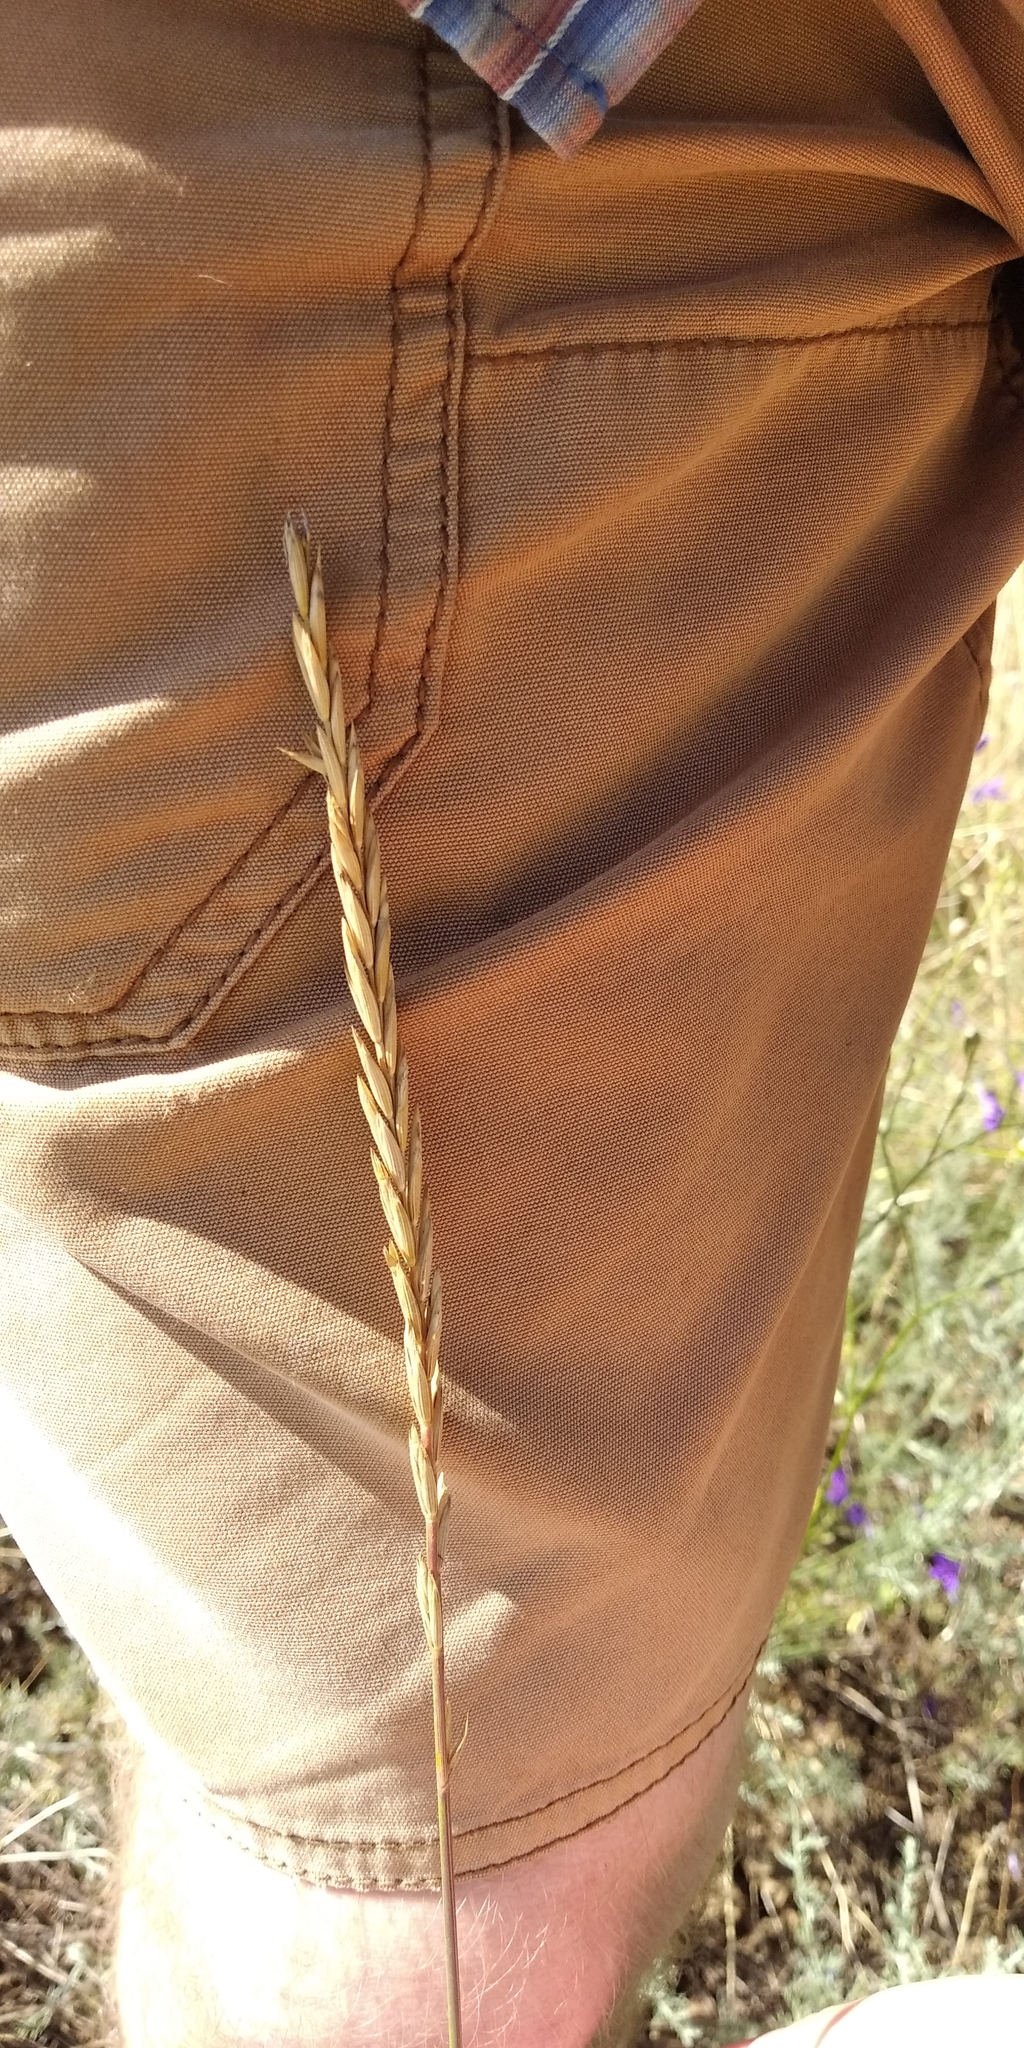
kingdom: Plantae
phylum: Tracheophyta
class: Liliopsida
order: Poales
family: Poaceae
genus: Elymus
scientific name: Elymus repens
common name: Quackgrass
